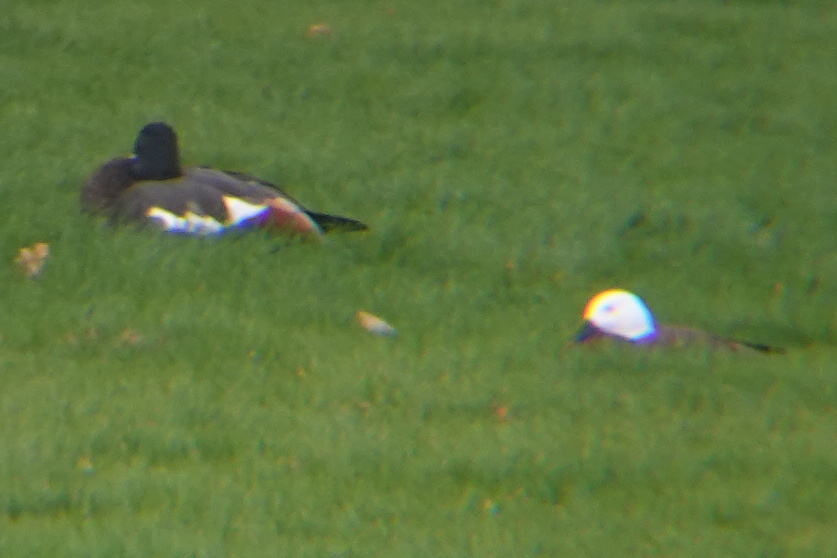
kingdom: Animalia
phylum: Chordata
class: Aves
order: Anseriformes
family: Anatidae
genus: Tadorna
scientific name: Tadorna variegata
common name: Paradise shelduck
